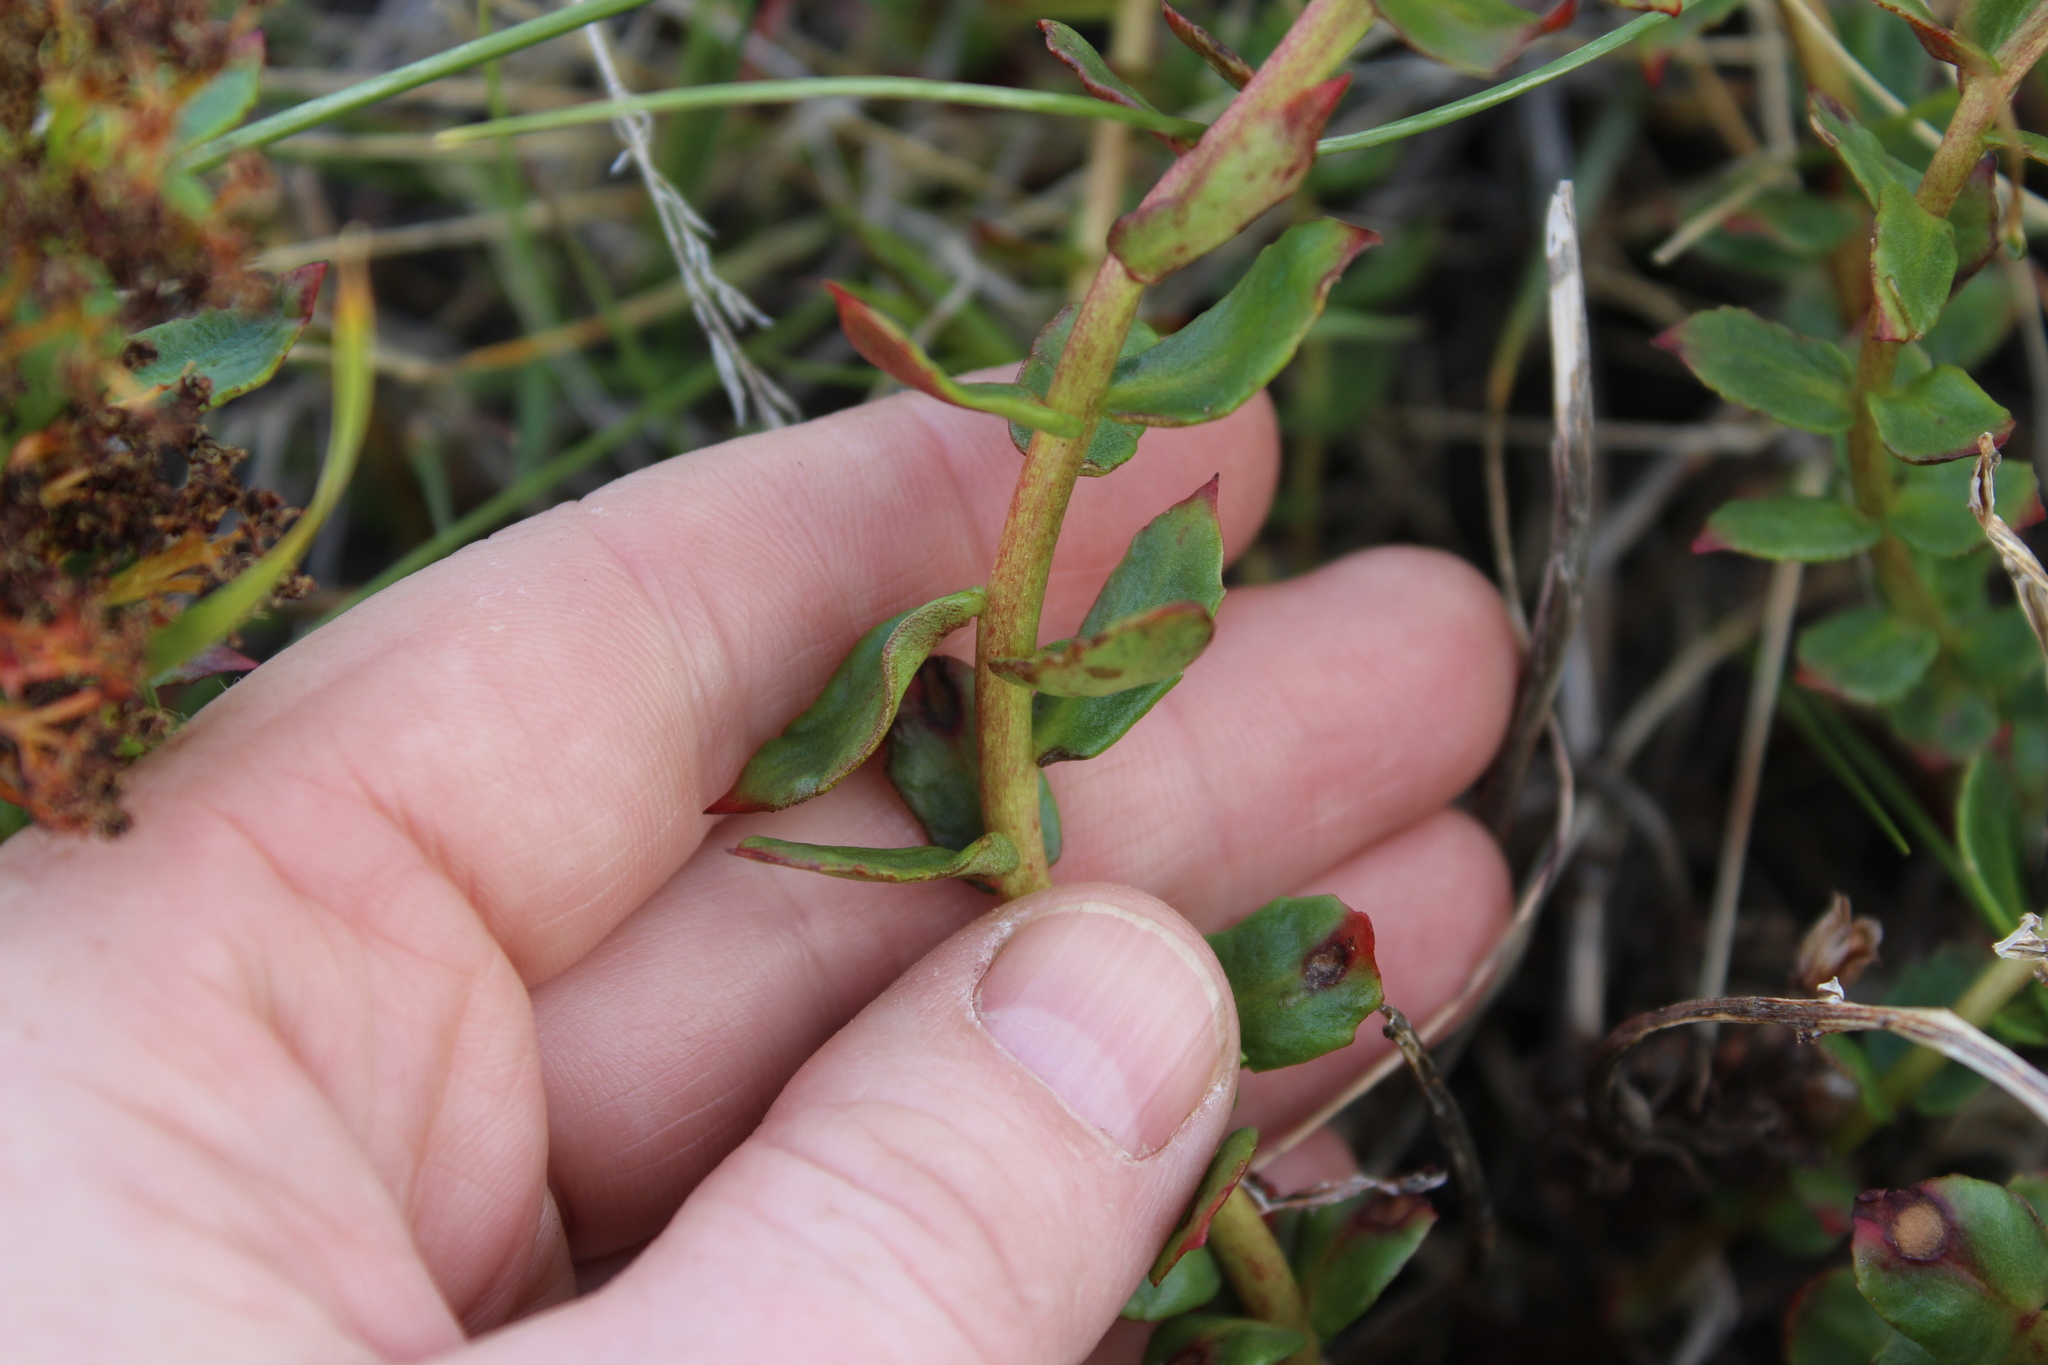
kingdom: Plantae
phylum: Tracheophyta
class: Magnoliopsida
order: Saxifragales
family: Crassulaceae
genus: Rhodiola
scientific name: Rhodiola rosea
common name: Roseroot
